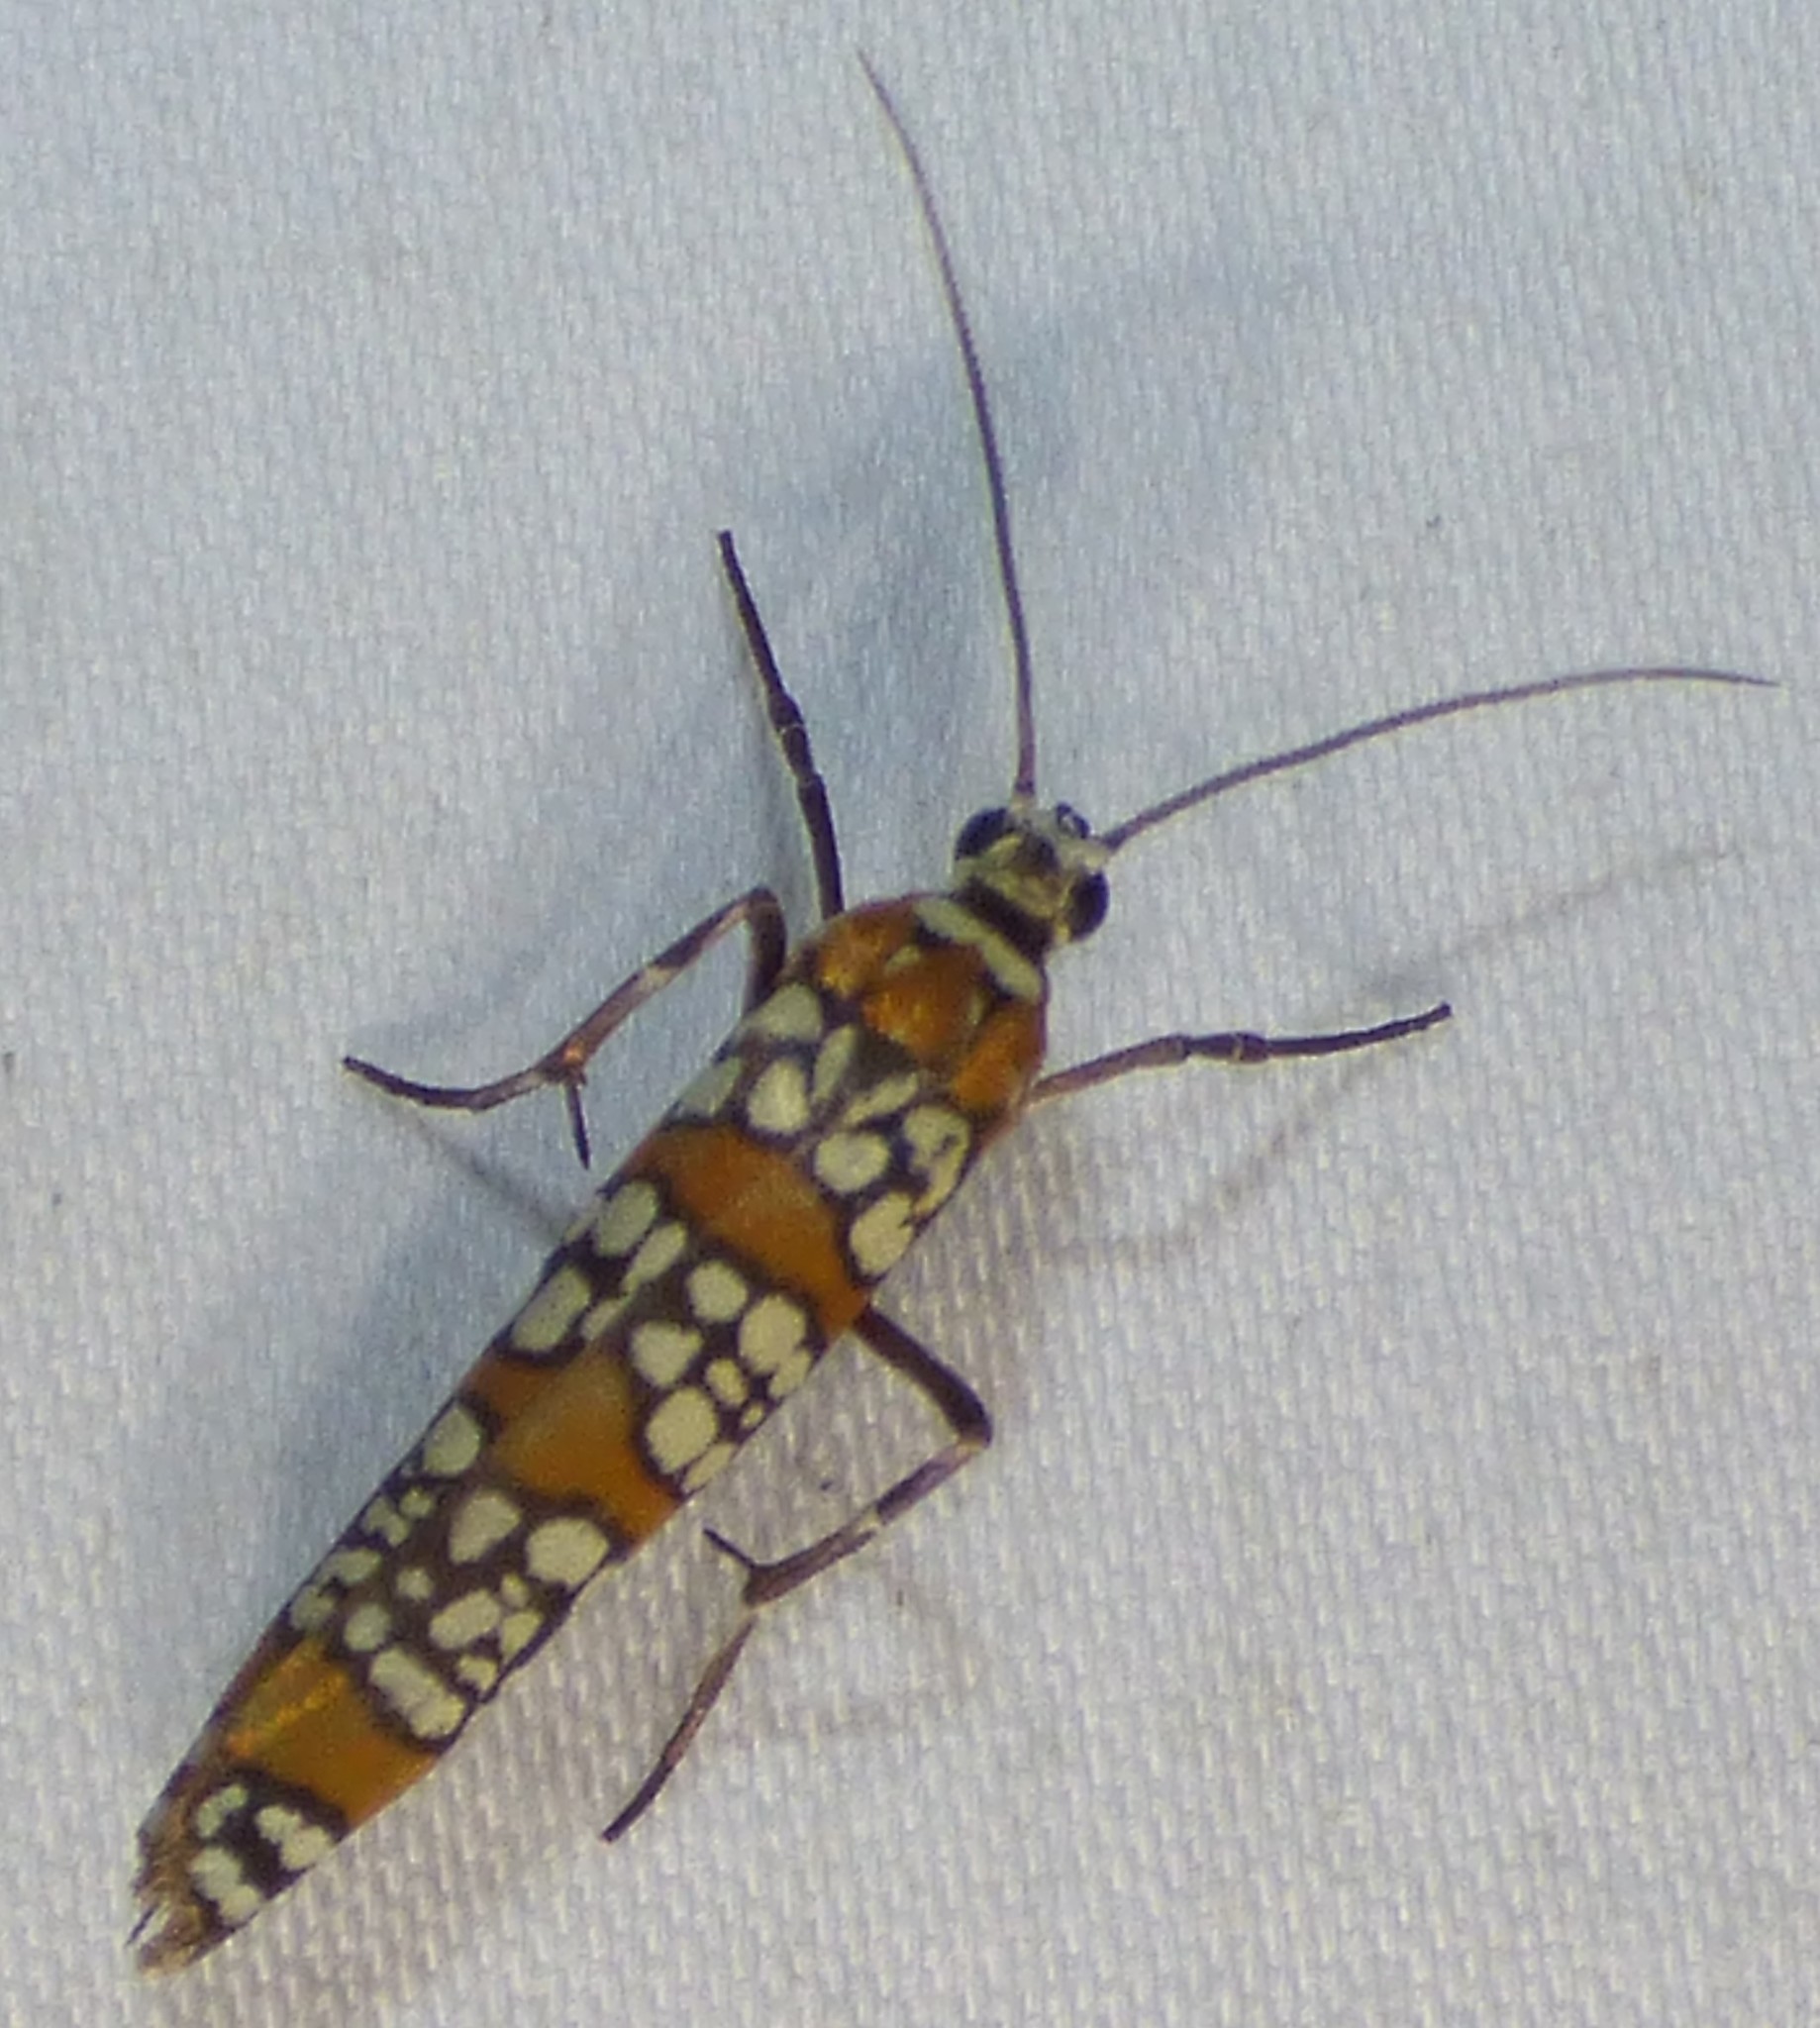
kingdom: Animalia
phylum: Arthropoda
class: Insecta
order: Lepidoptera
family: Attevidae
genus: Atteva
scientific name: Atteva punctella
